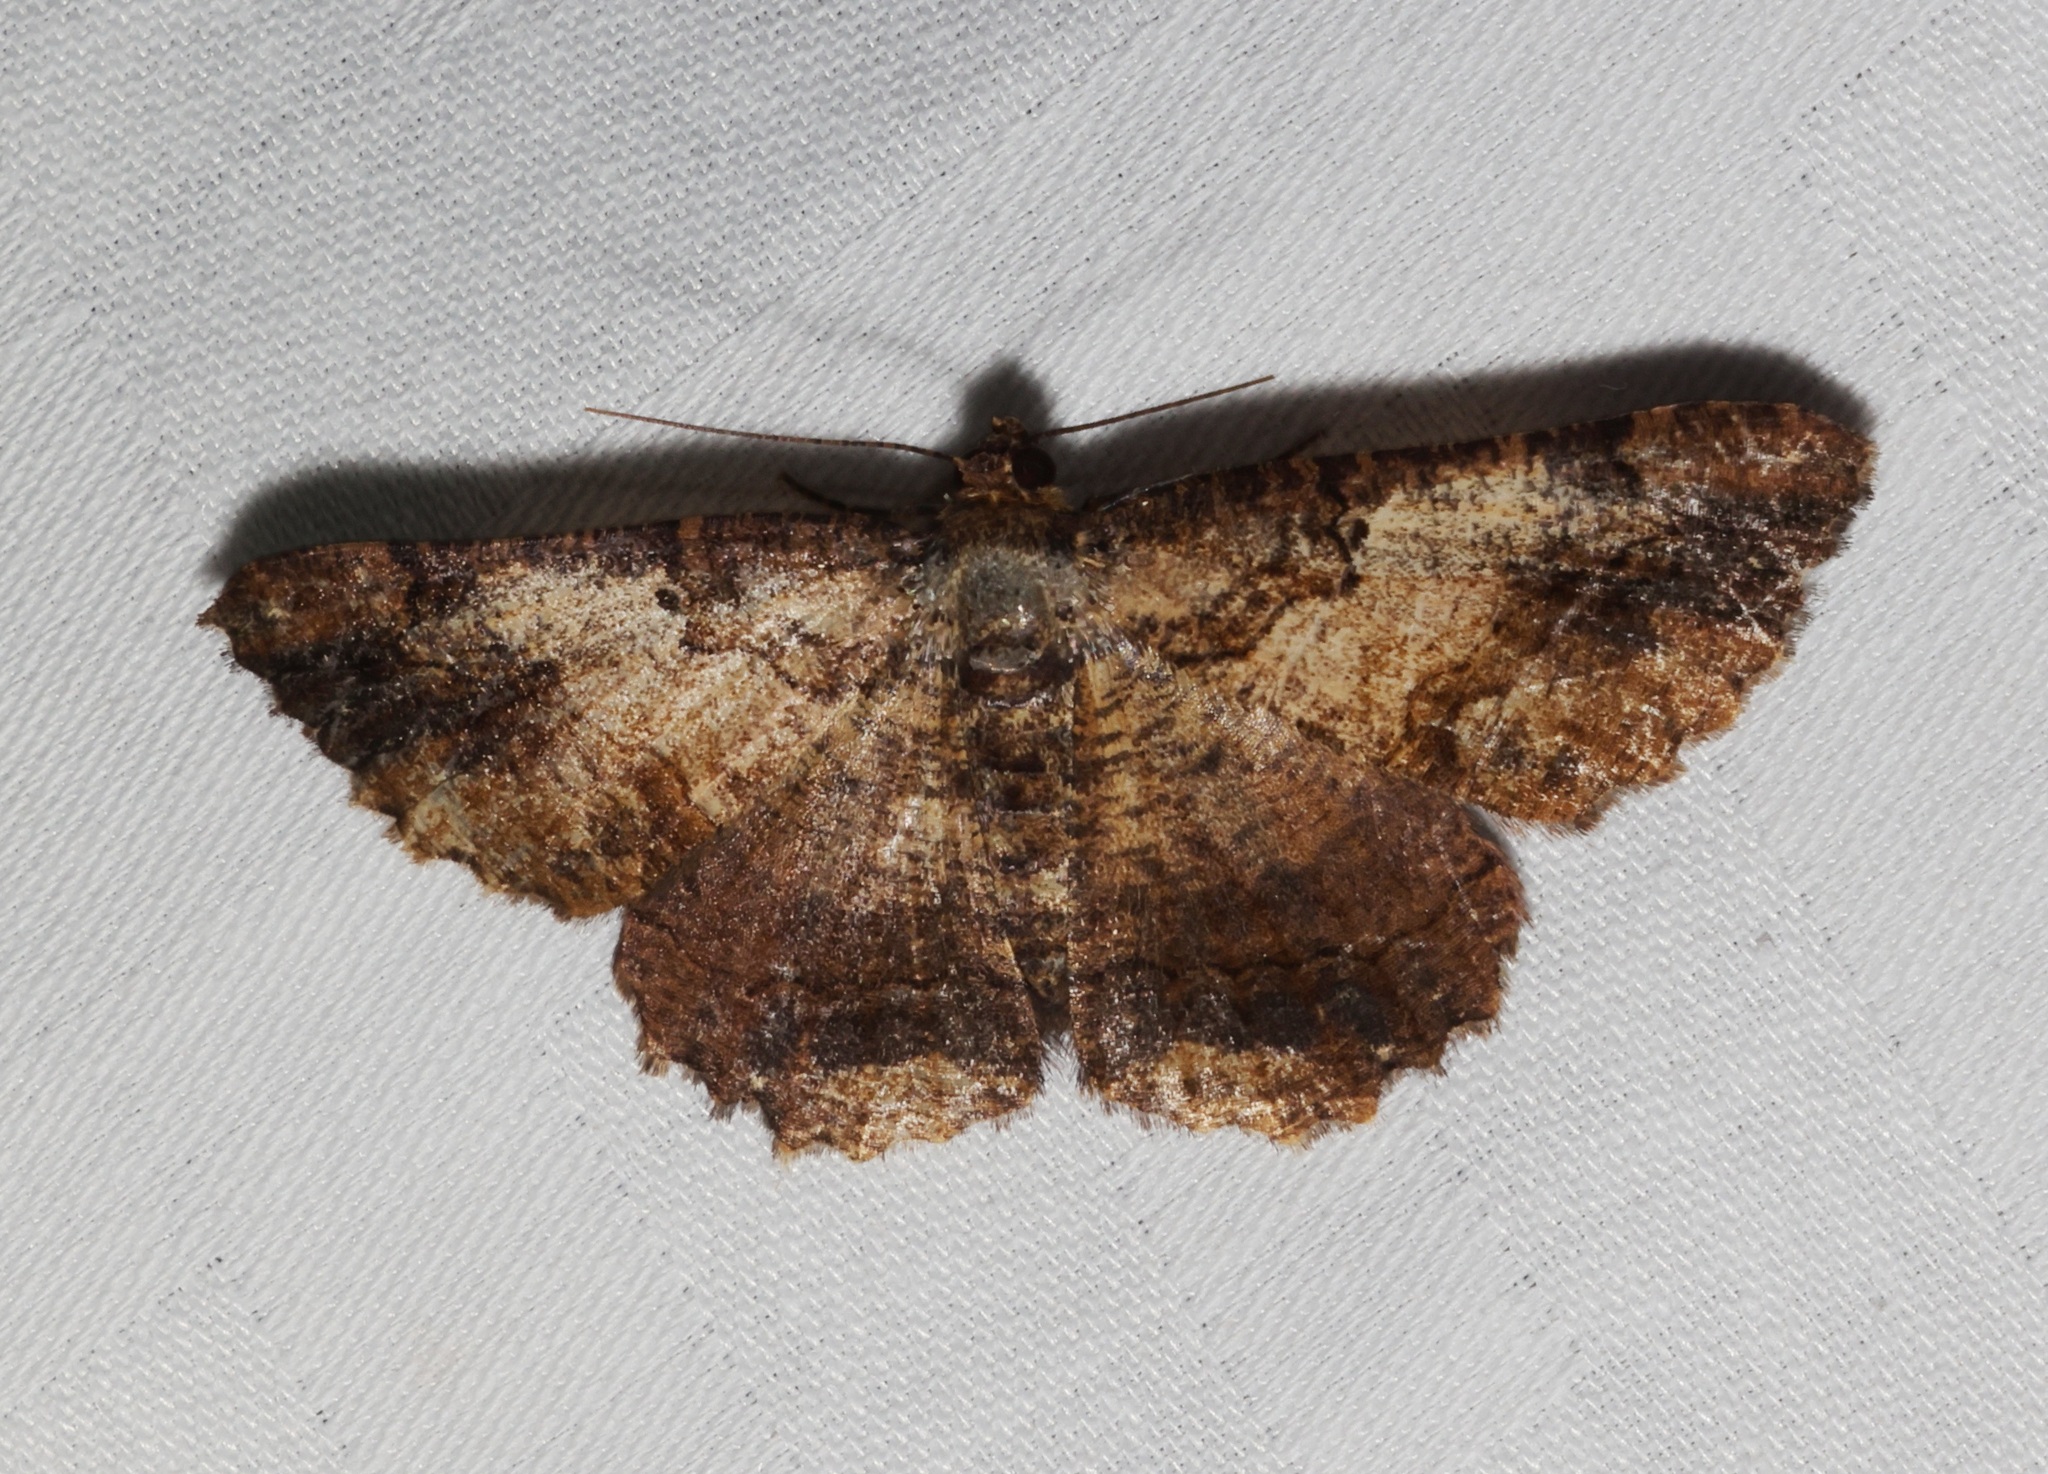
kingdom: Animalia
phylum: Arthropoda
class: Insecta
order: Lepidoptera
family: Geometridae
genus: Dasyboarmia
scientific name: Dasyboarmia subpilosa
